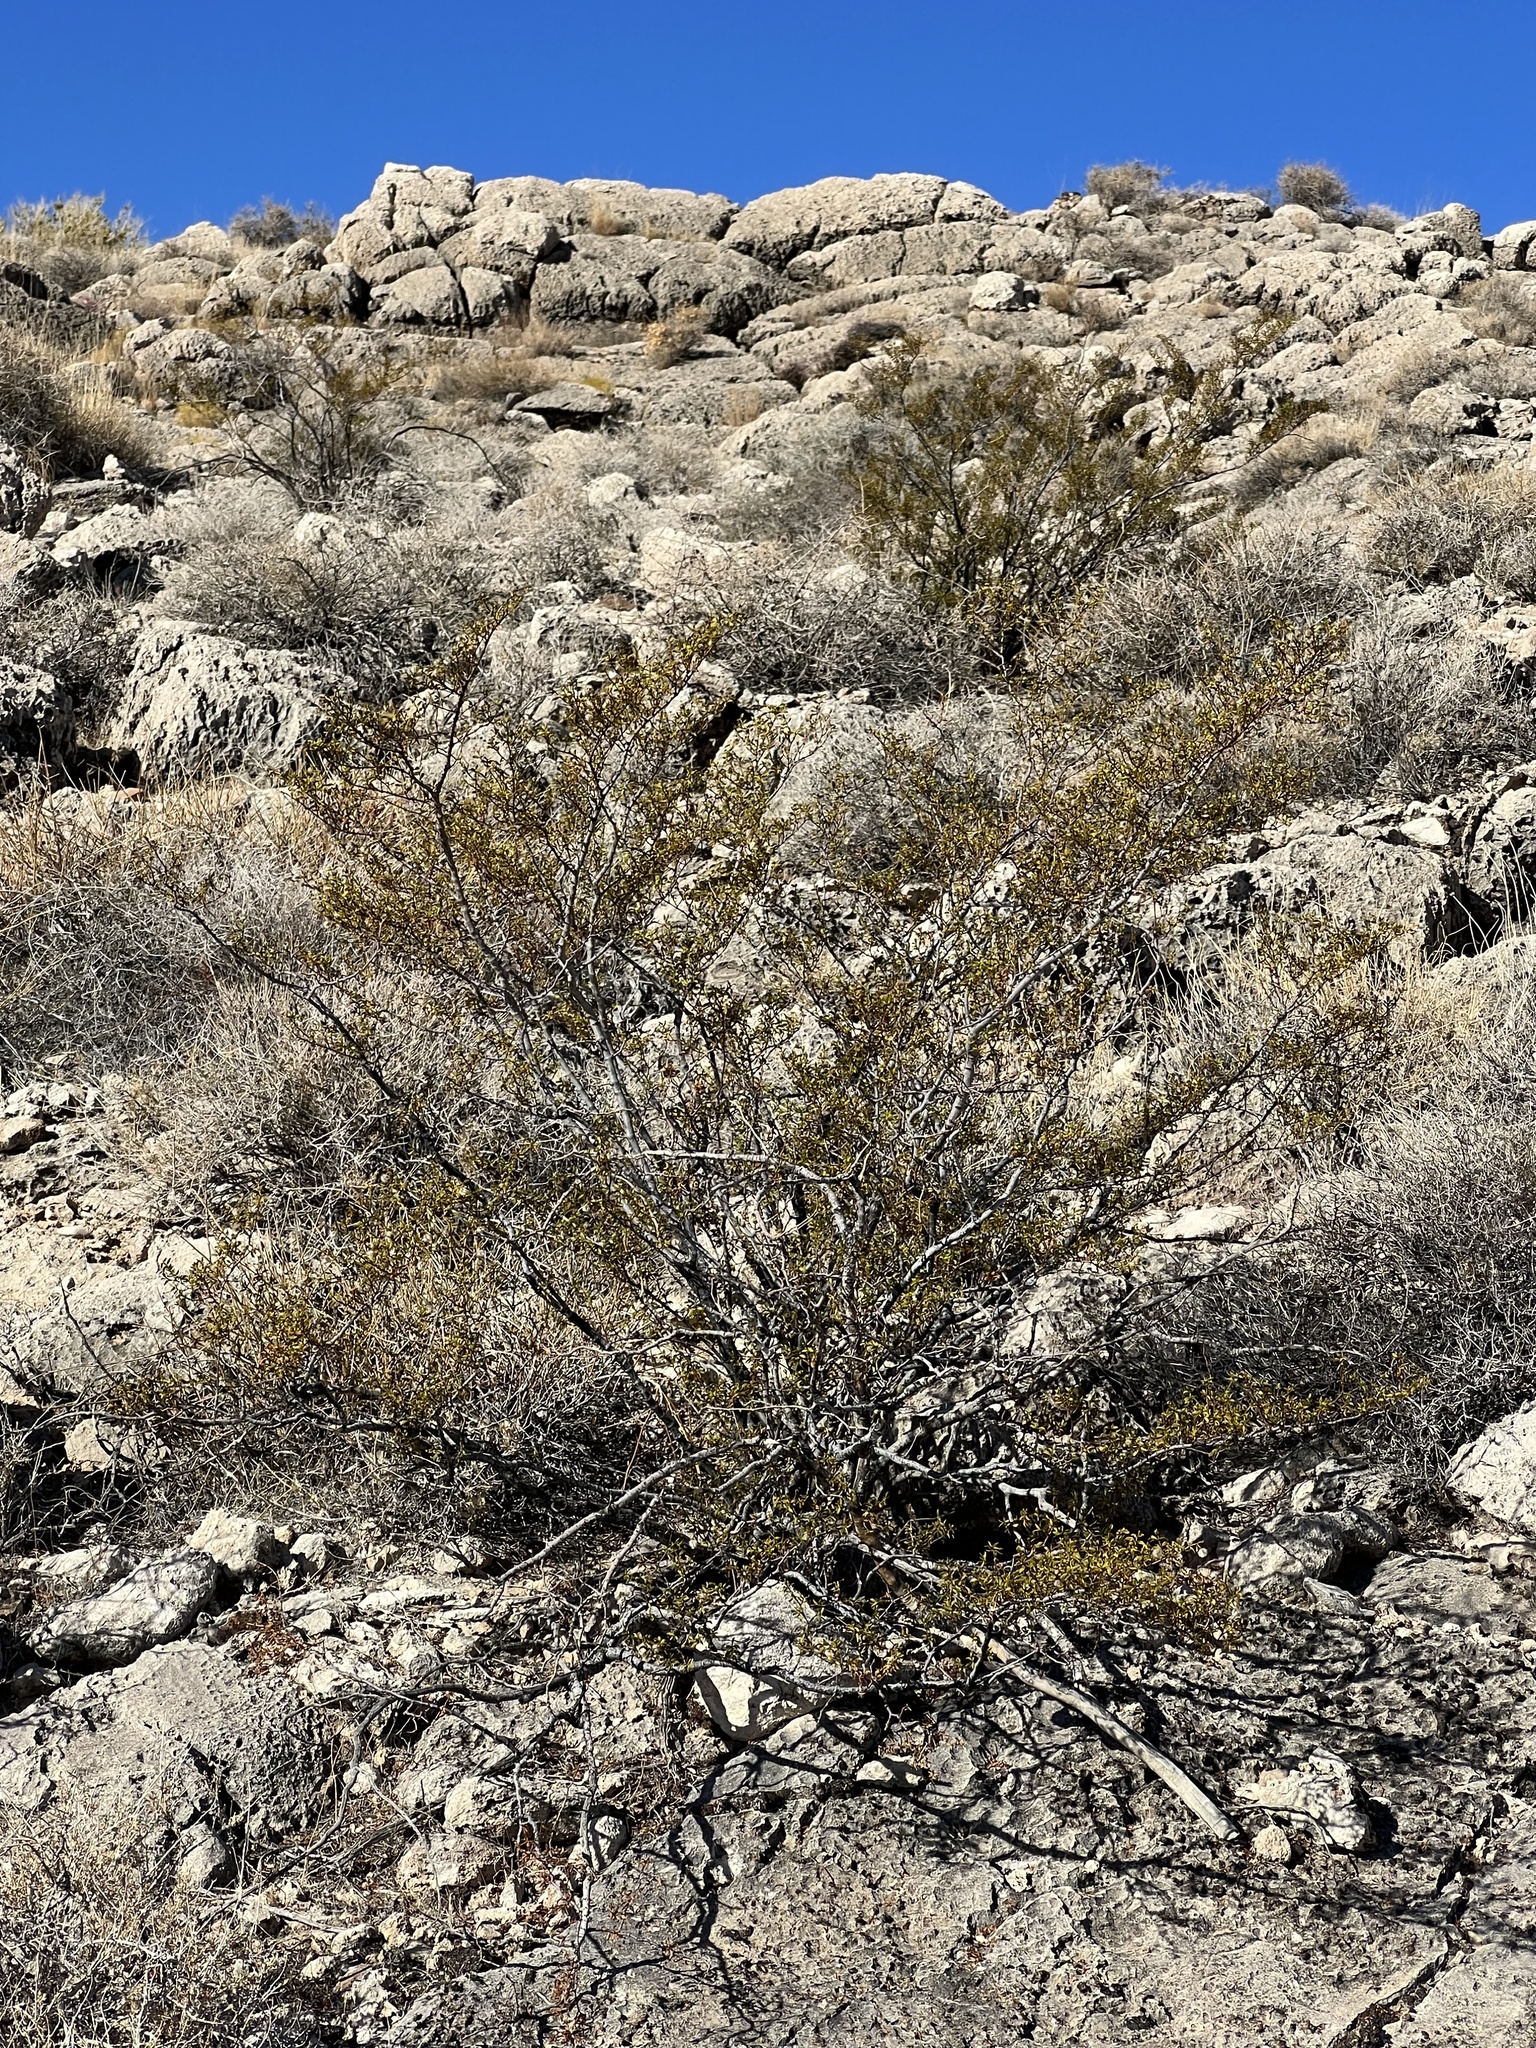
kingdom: Plantae
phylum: Tracheophyta
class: Magnoliopsida
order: Zygophyllales
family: Zygophyllaceae
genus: Larrea
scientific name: Larrea tridentata
